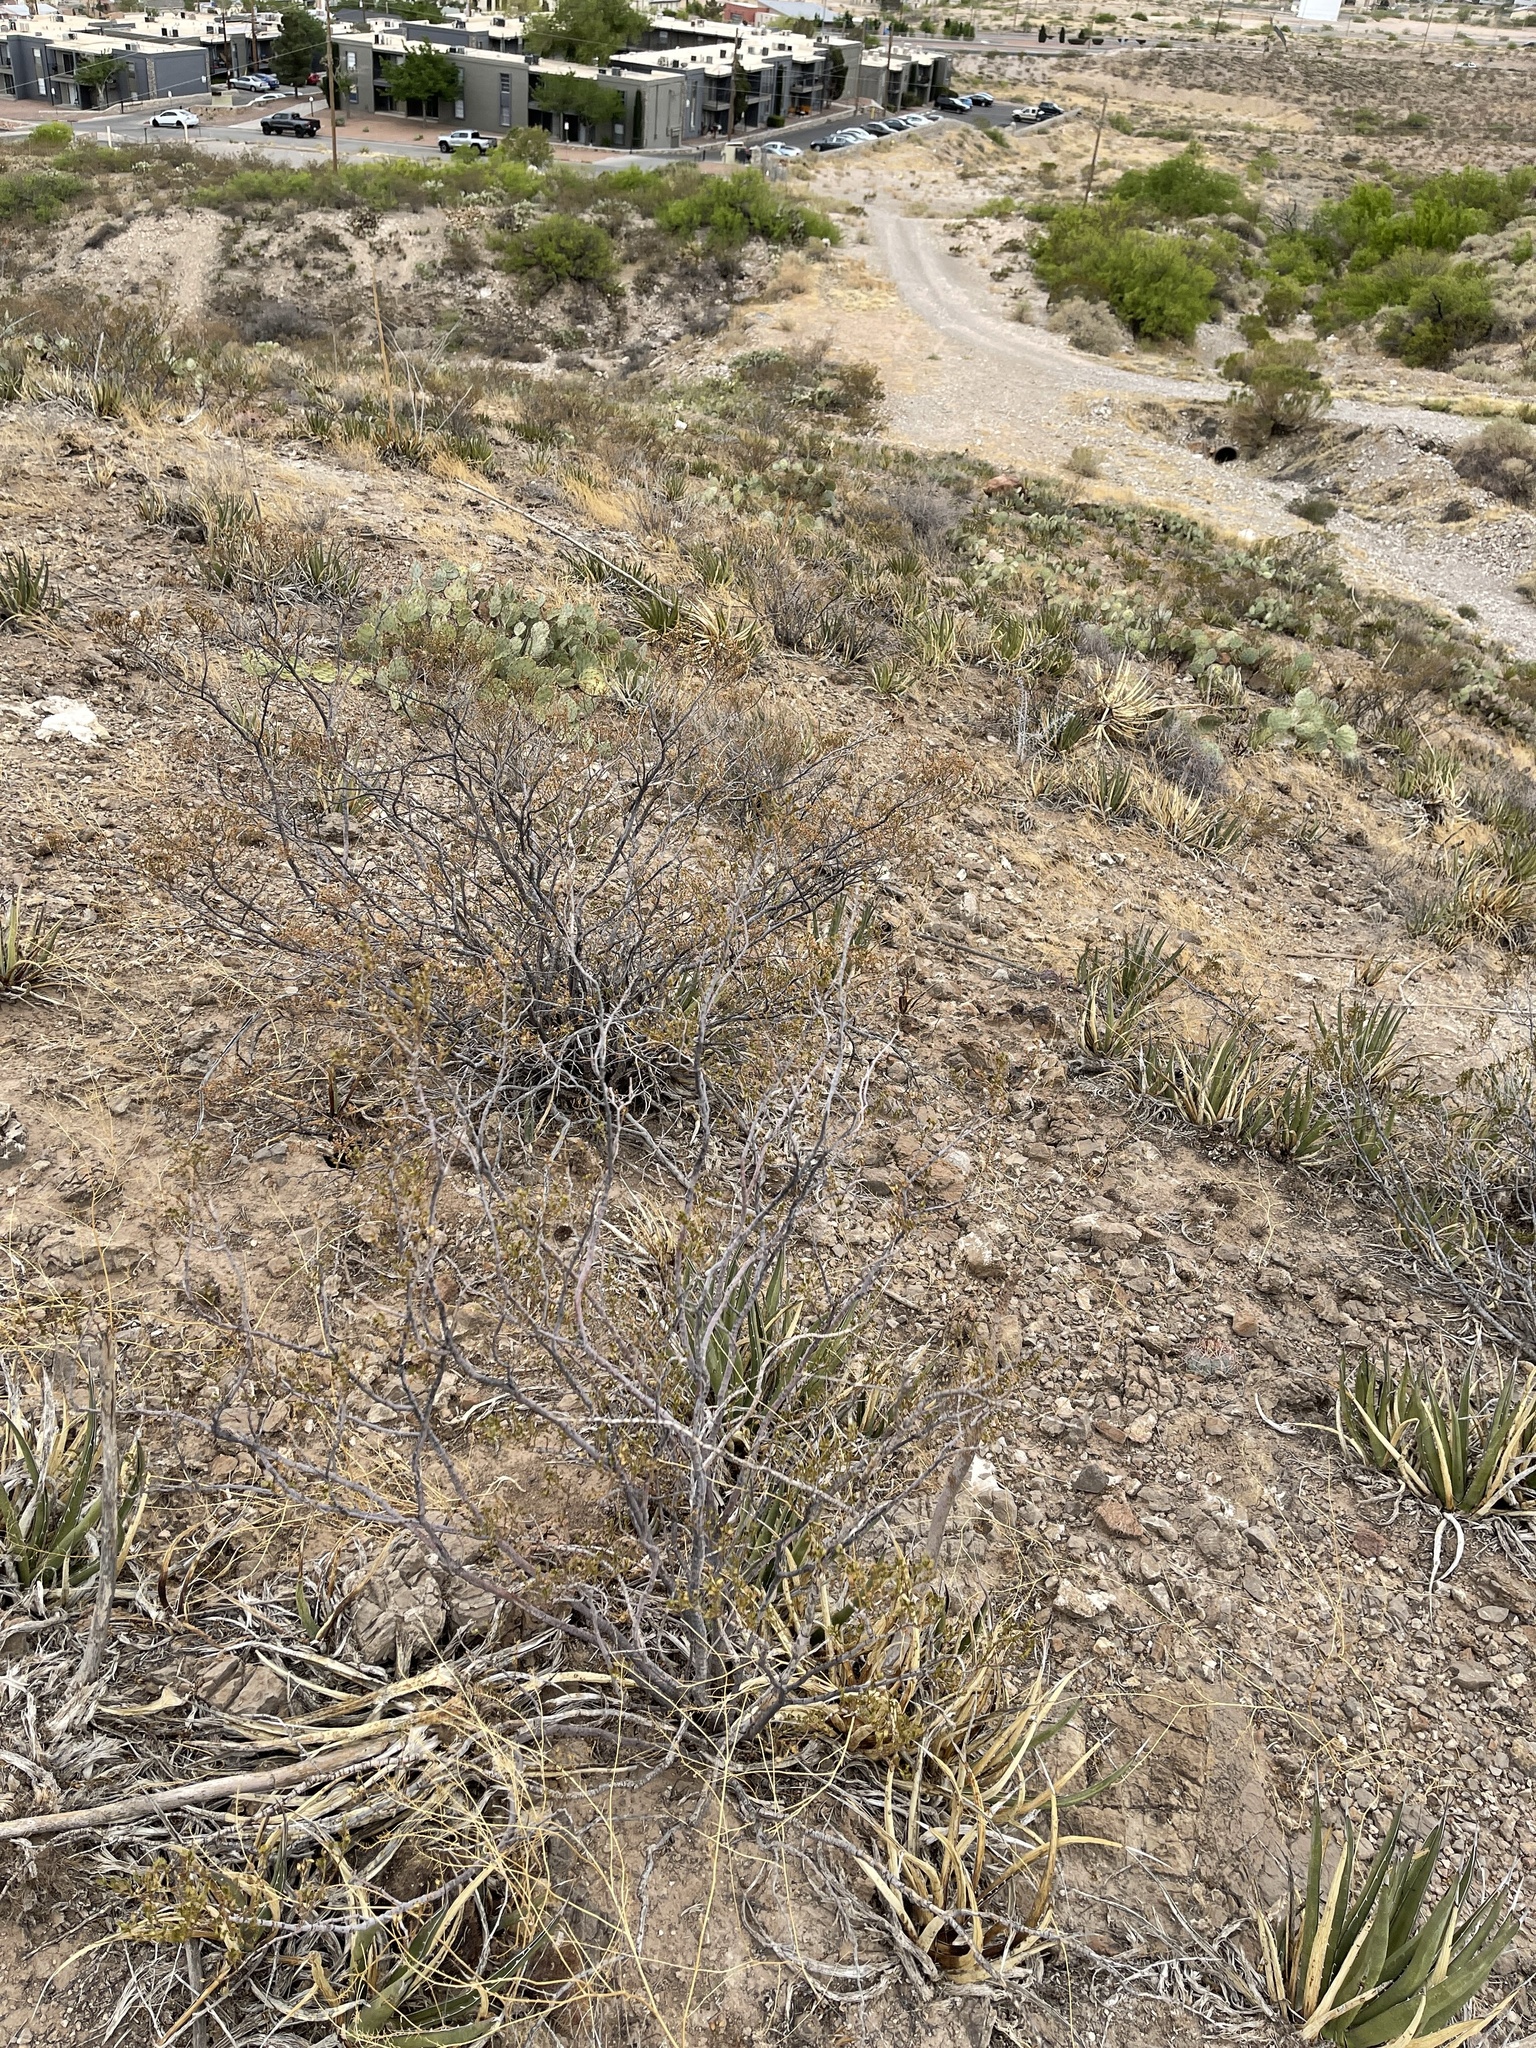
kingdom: Plantae
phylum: Tracheophyta
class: Magnoliopsida
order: Zygophyllales
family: Zygophyllaceae
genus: Larrea
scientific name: Larrea tridentata
